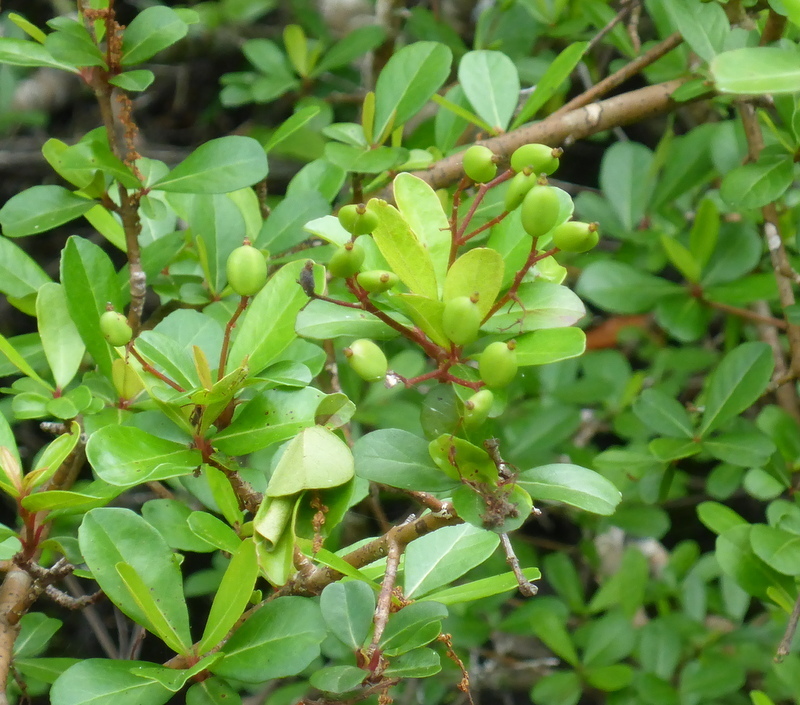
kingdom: Plantae
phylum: Tracheophyta
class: Magnoliopsida
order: Dipsacales
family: Viburnaceae
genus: Viburnum
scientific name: Viburnum obovatum
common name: Walter's viburnum
